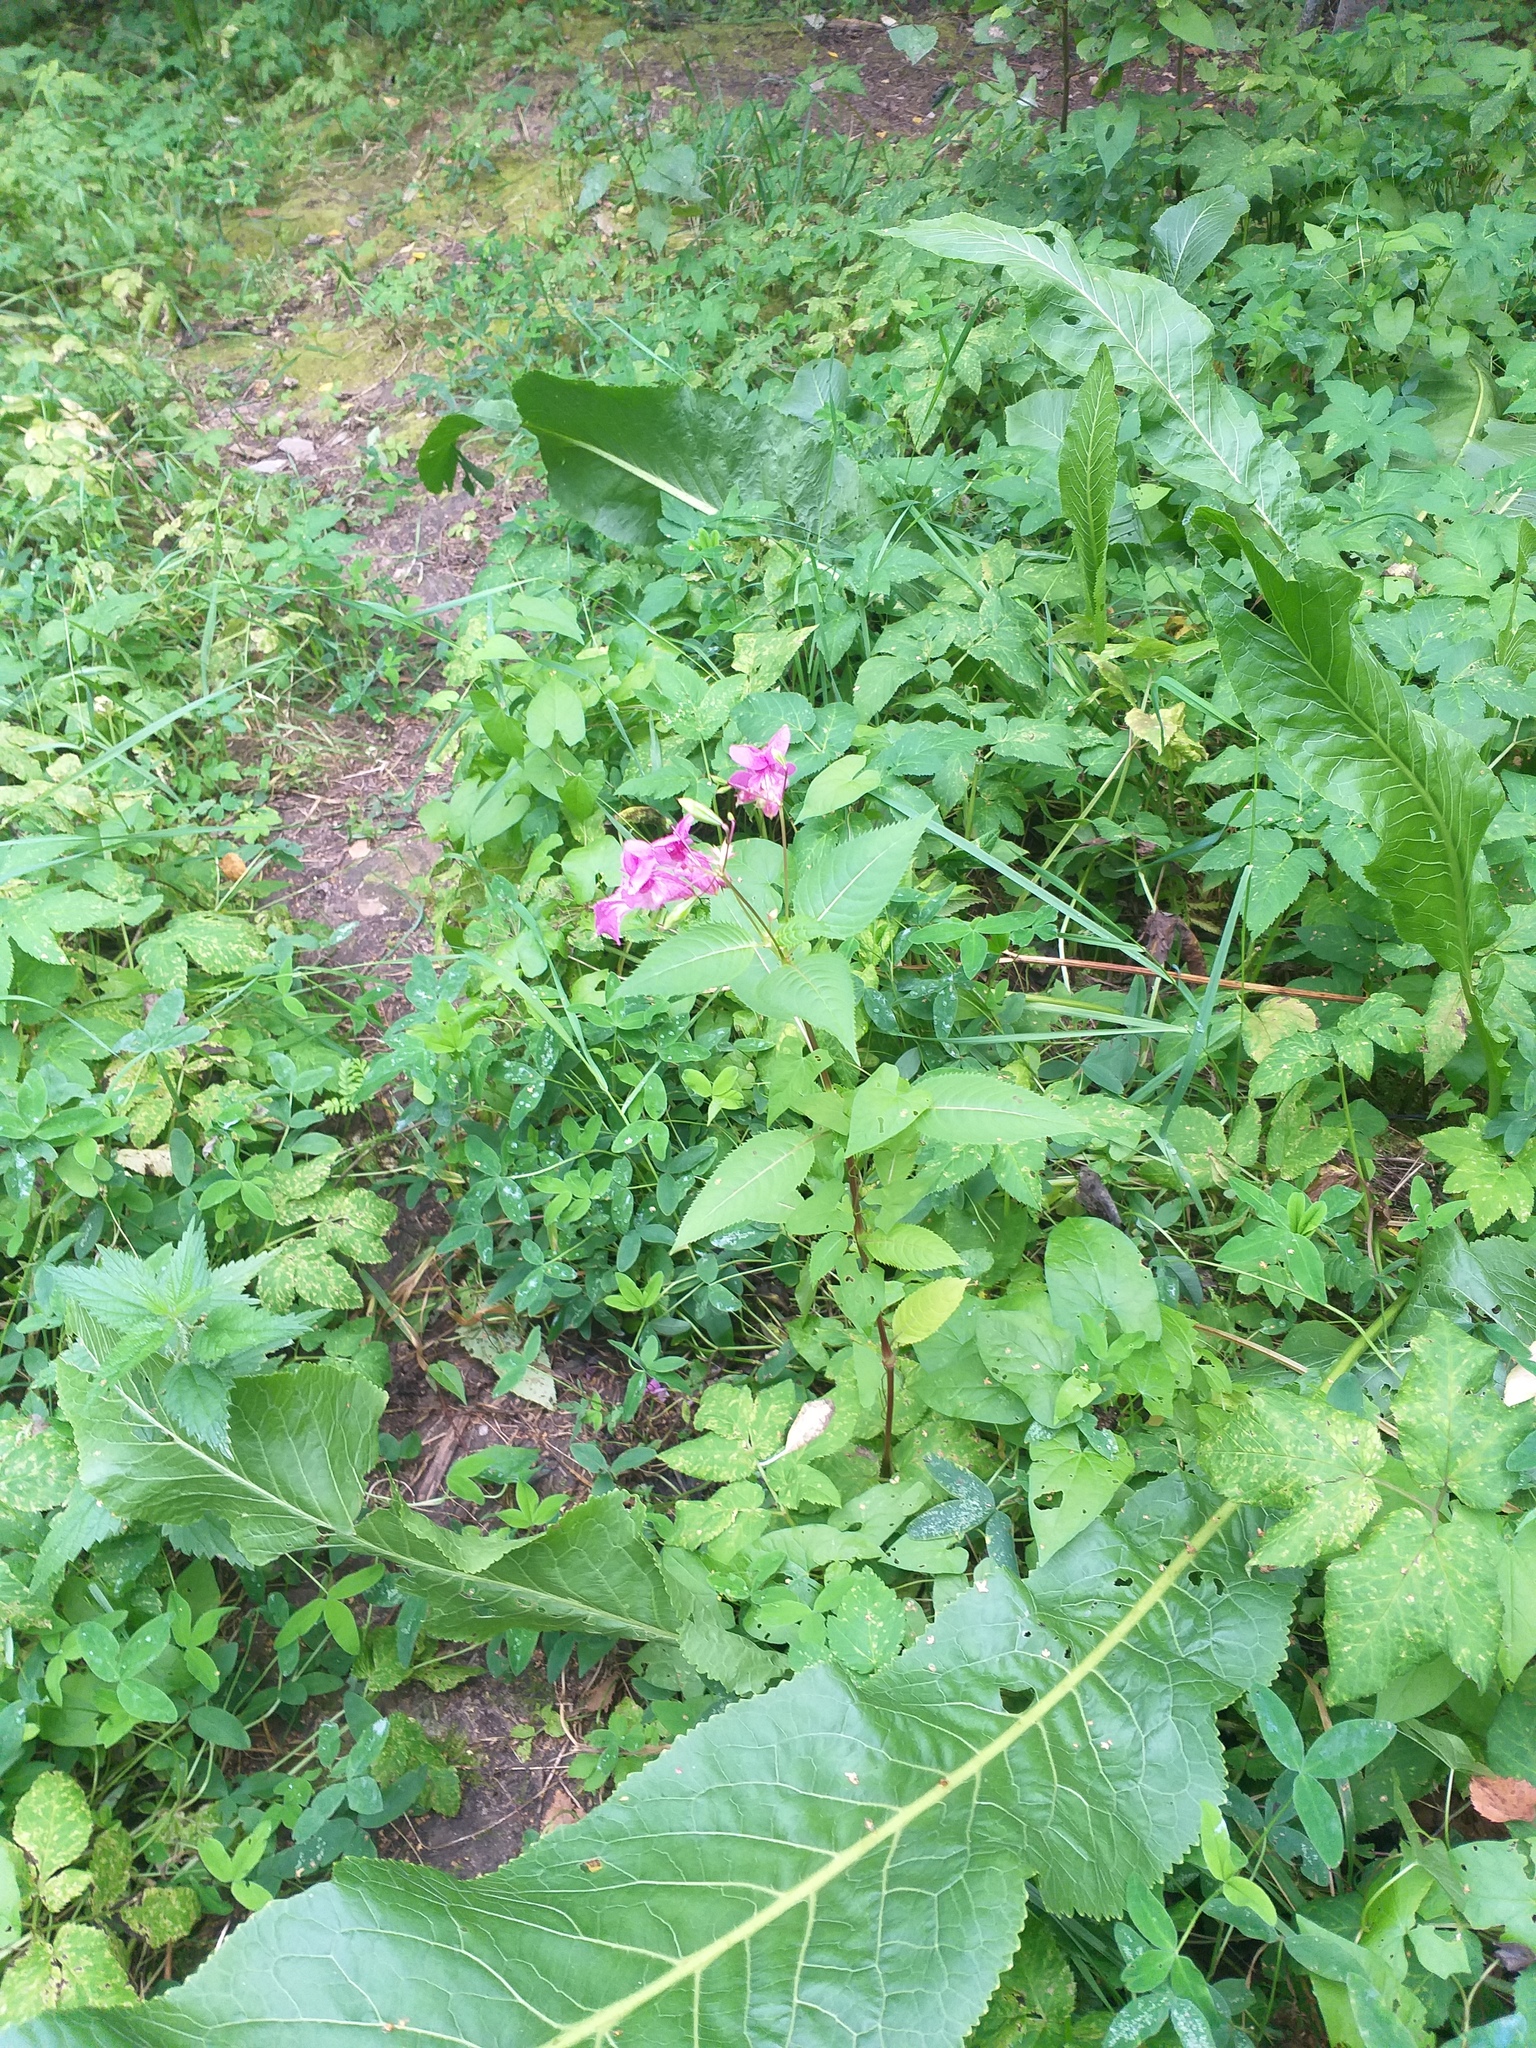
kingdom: Plantae
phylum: Tracheophyta
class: Magnoliopsida
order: Ericales
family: Balsaminaceae
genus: Impatiens
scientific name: Impatiens glandulifera
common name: Himalayan balsam
